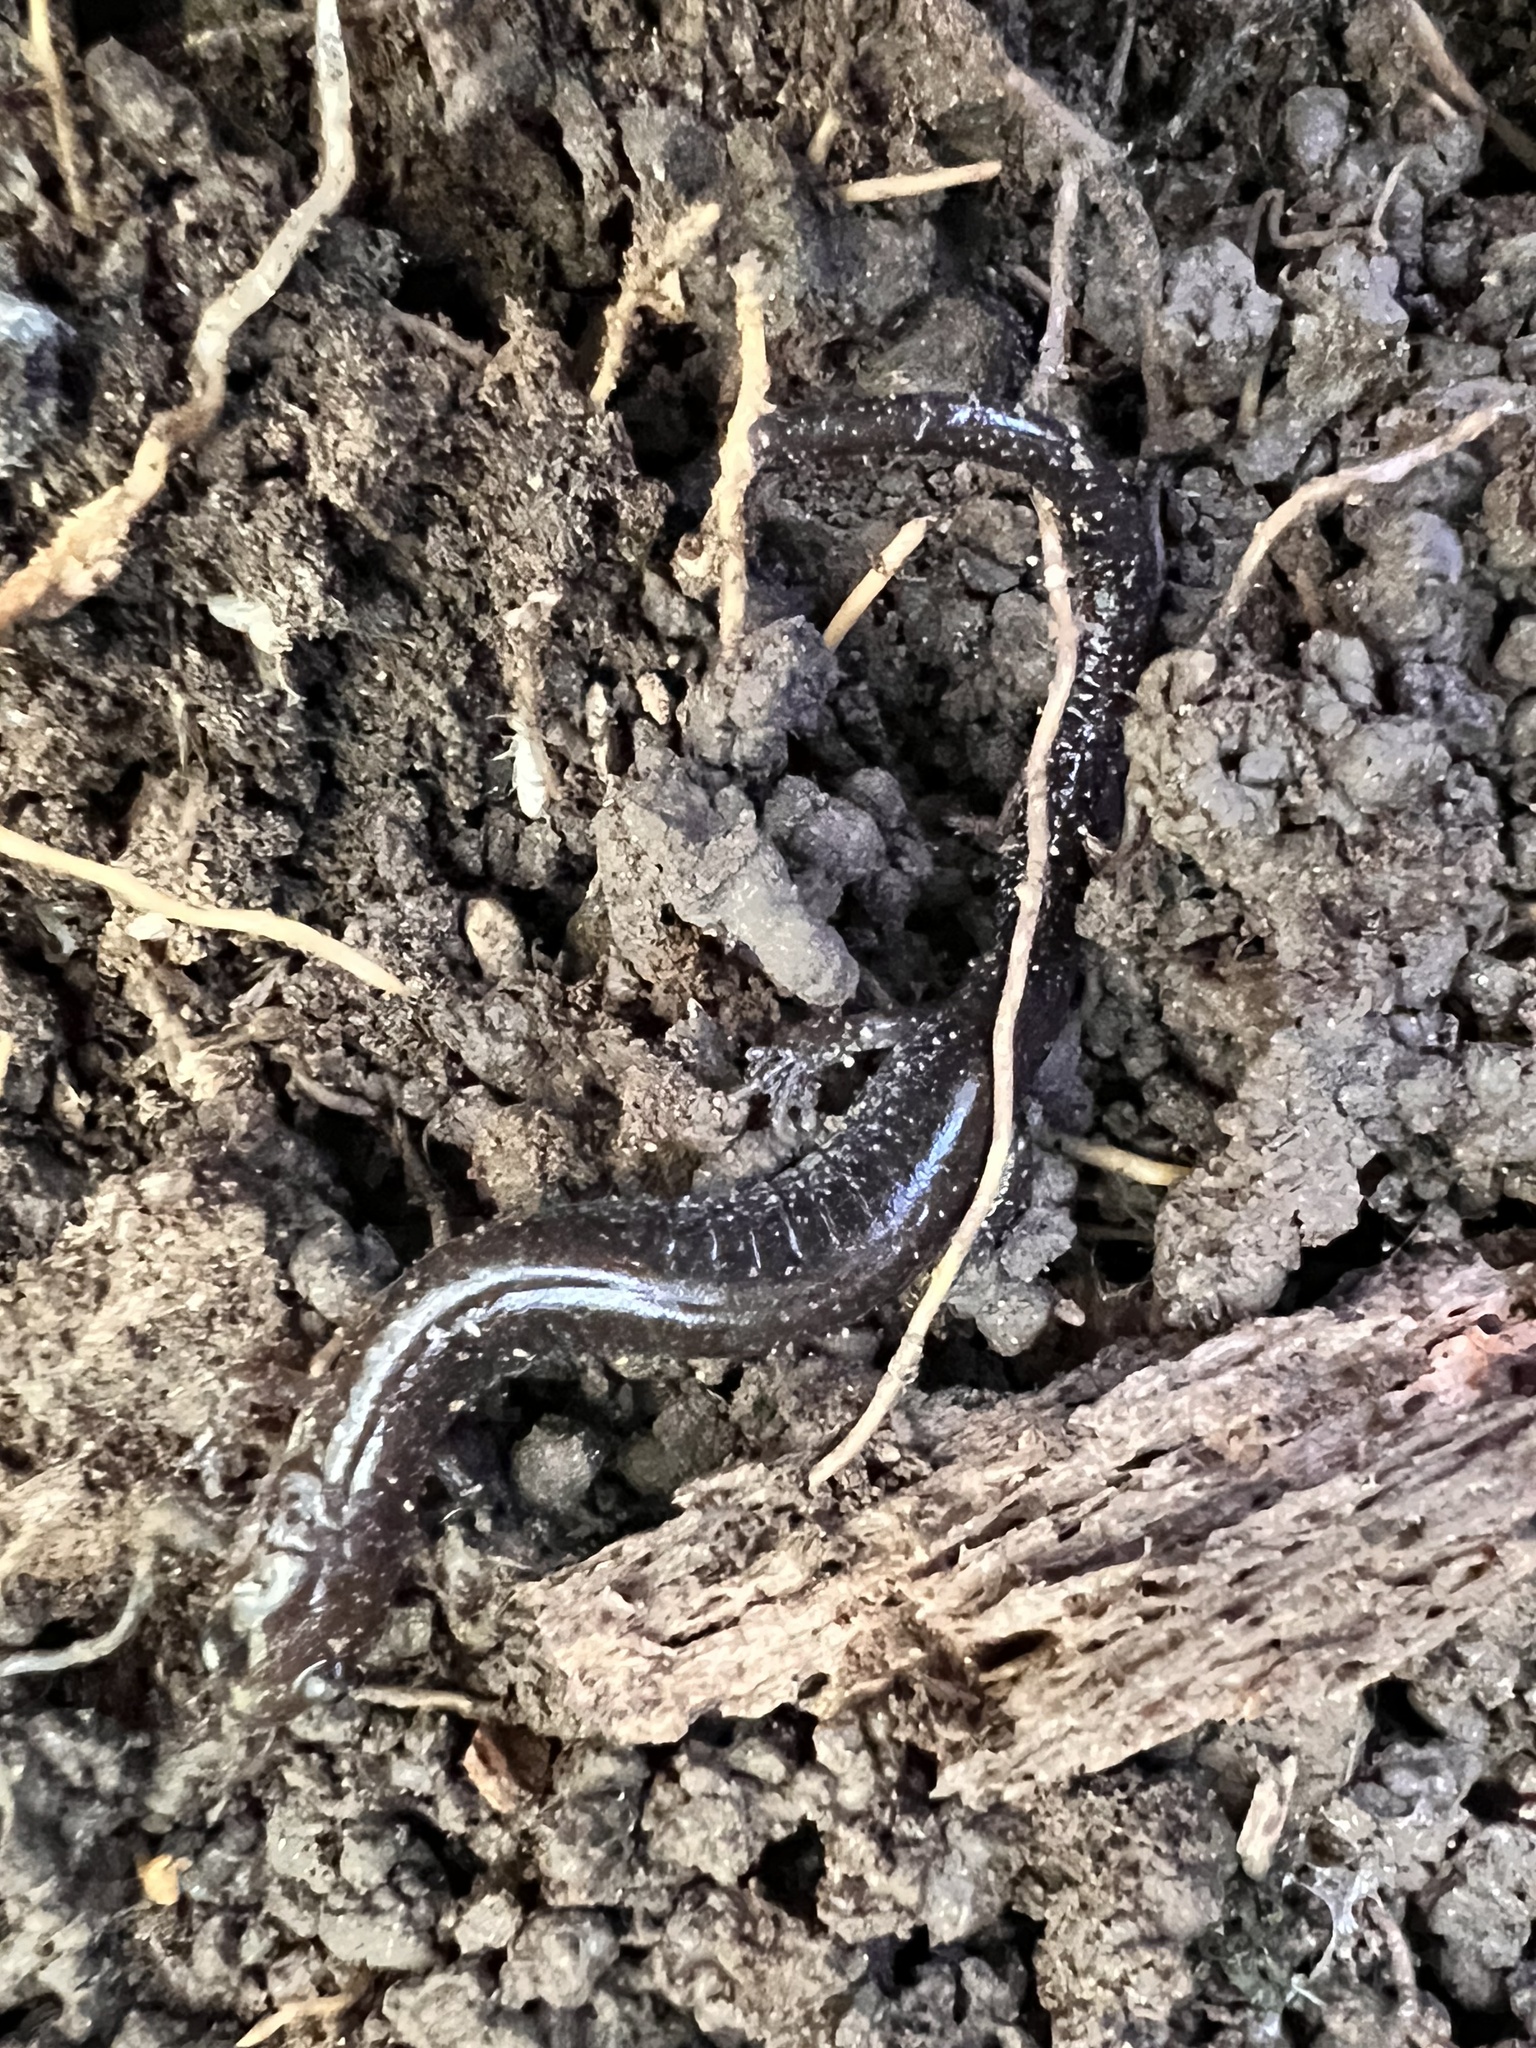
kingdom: Animalia
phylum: Chordata
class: Amphibia
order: Caudata
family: Plethodontidae
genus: Plethodon
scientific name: Plethodon cinereus
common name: Redback salamander
